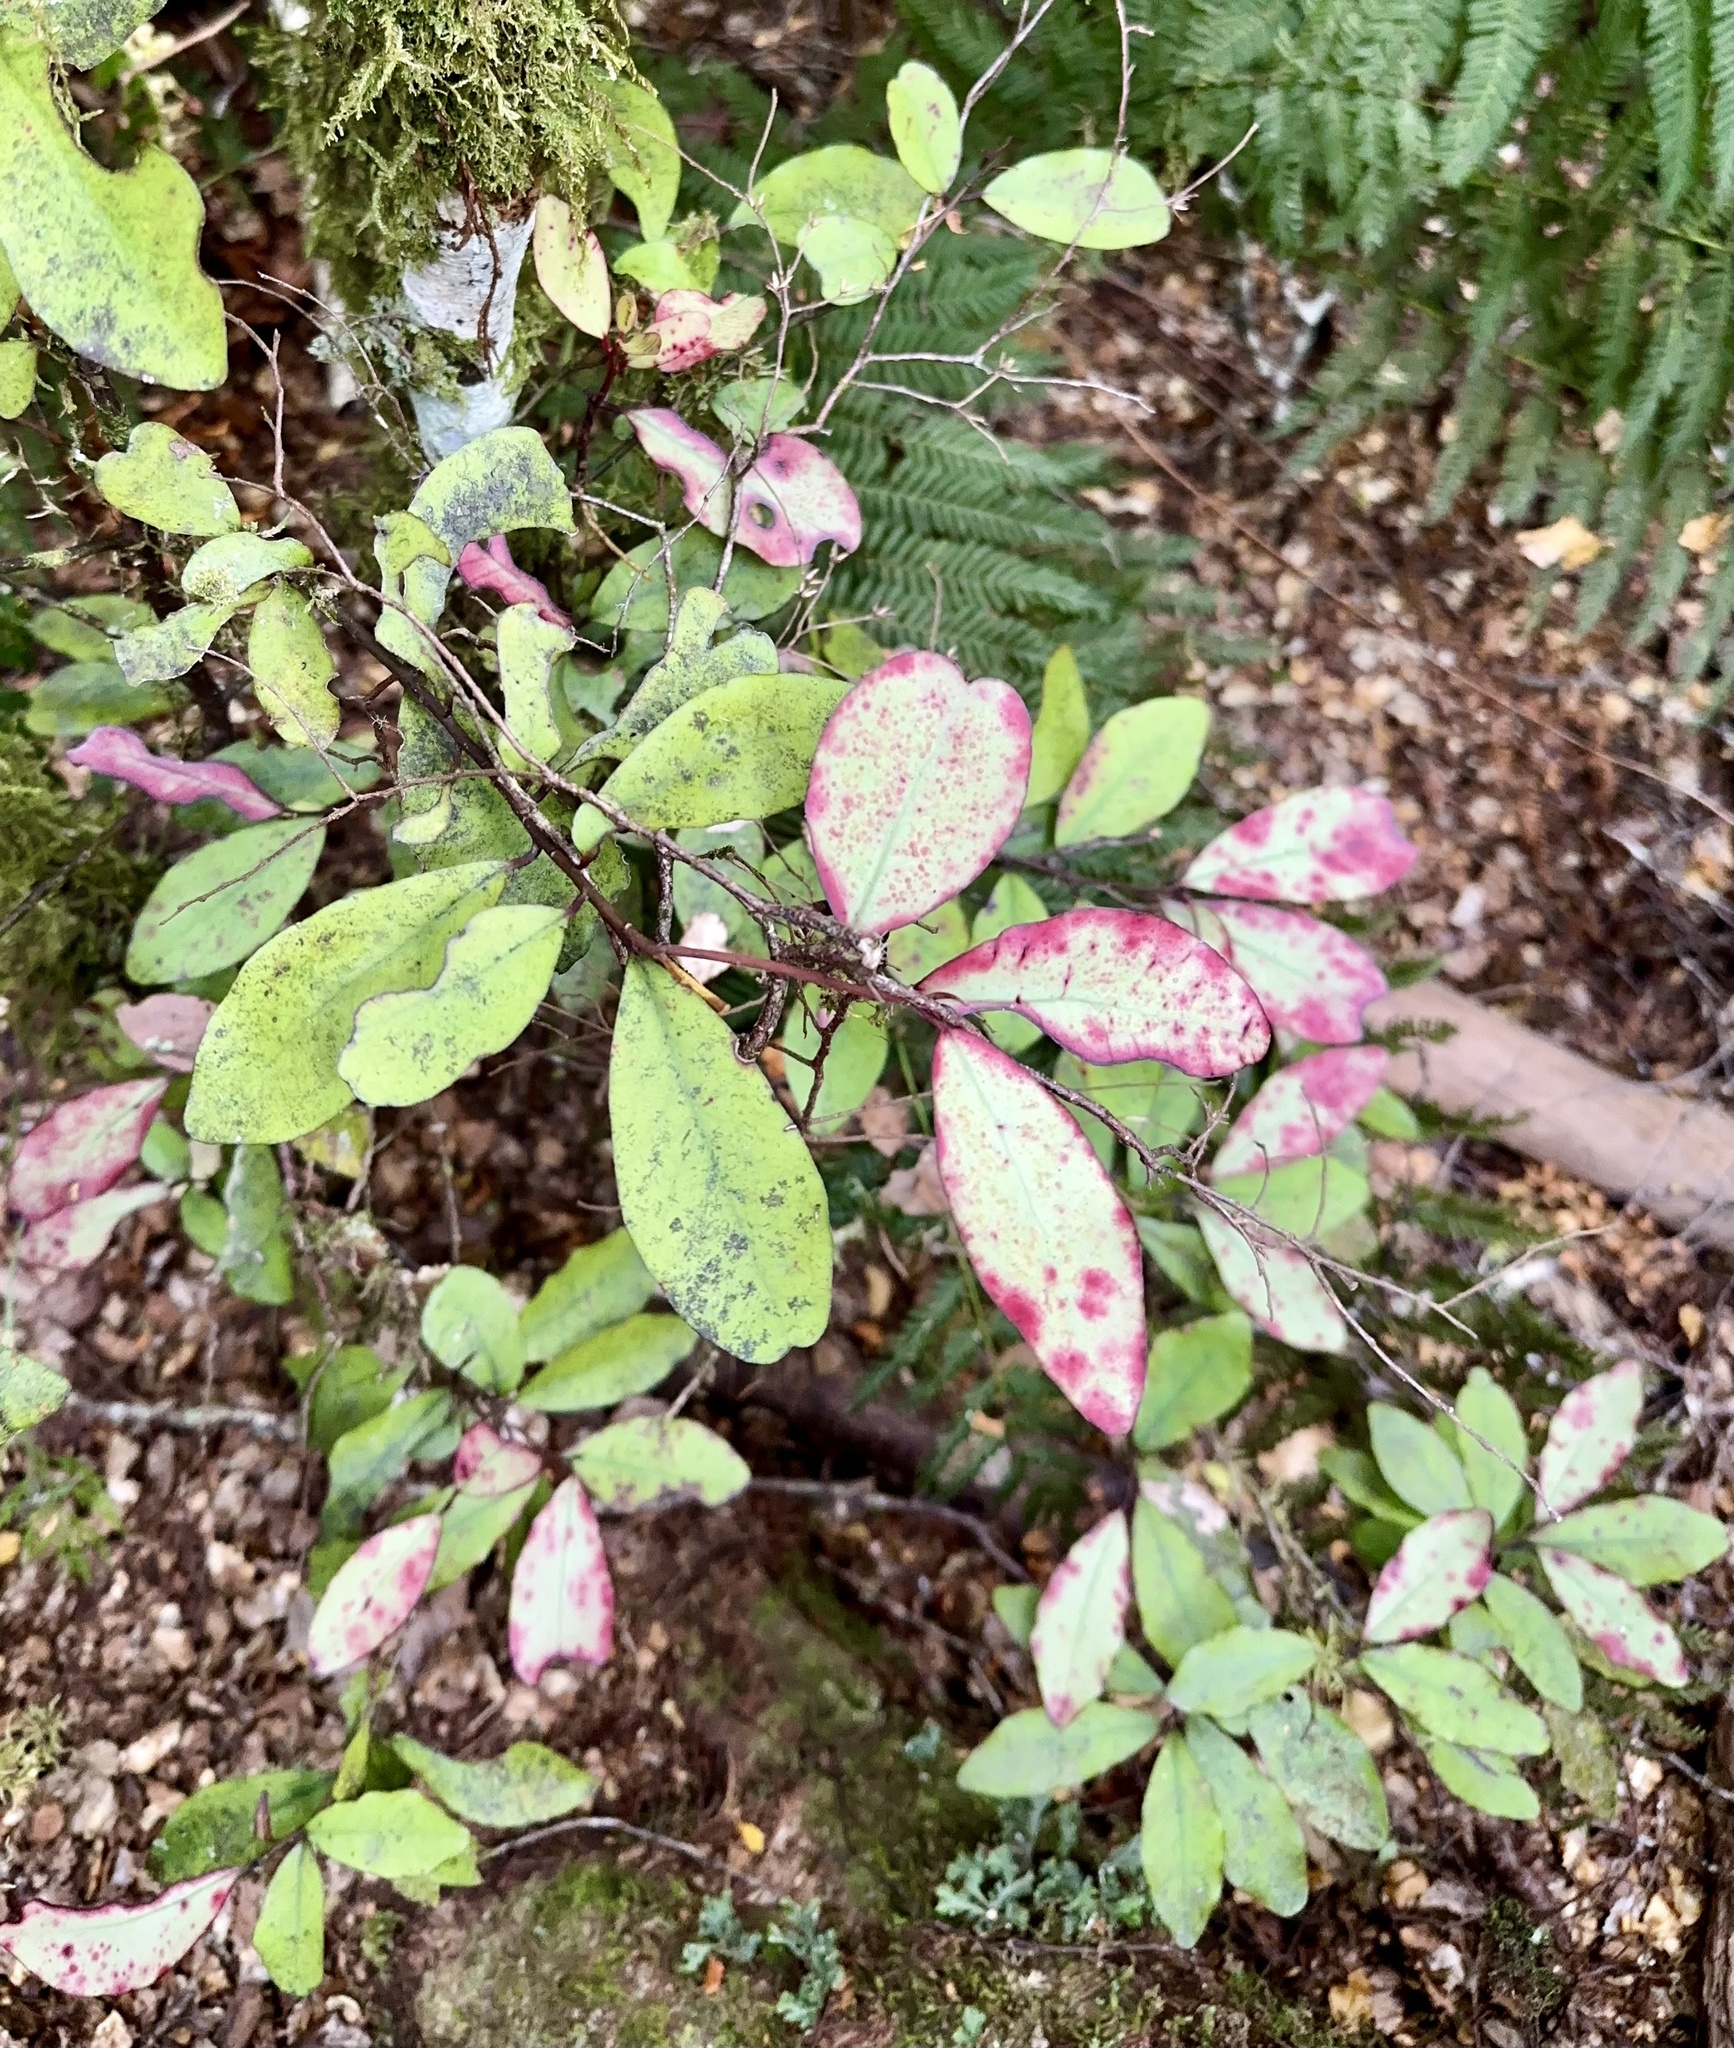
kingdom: Plantae
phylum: Tracheophyta
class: Magnoliopsida
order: Canellales
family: Winteraceae
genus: Pseudowintera
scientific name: Pseudowintera colorata
